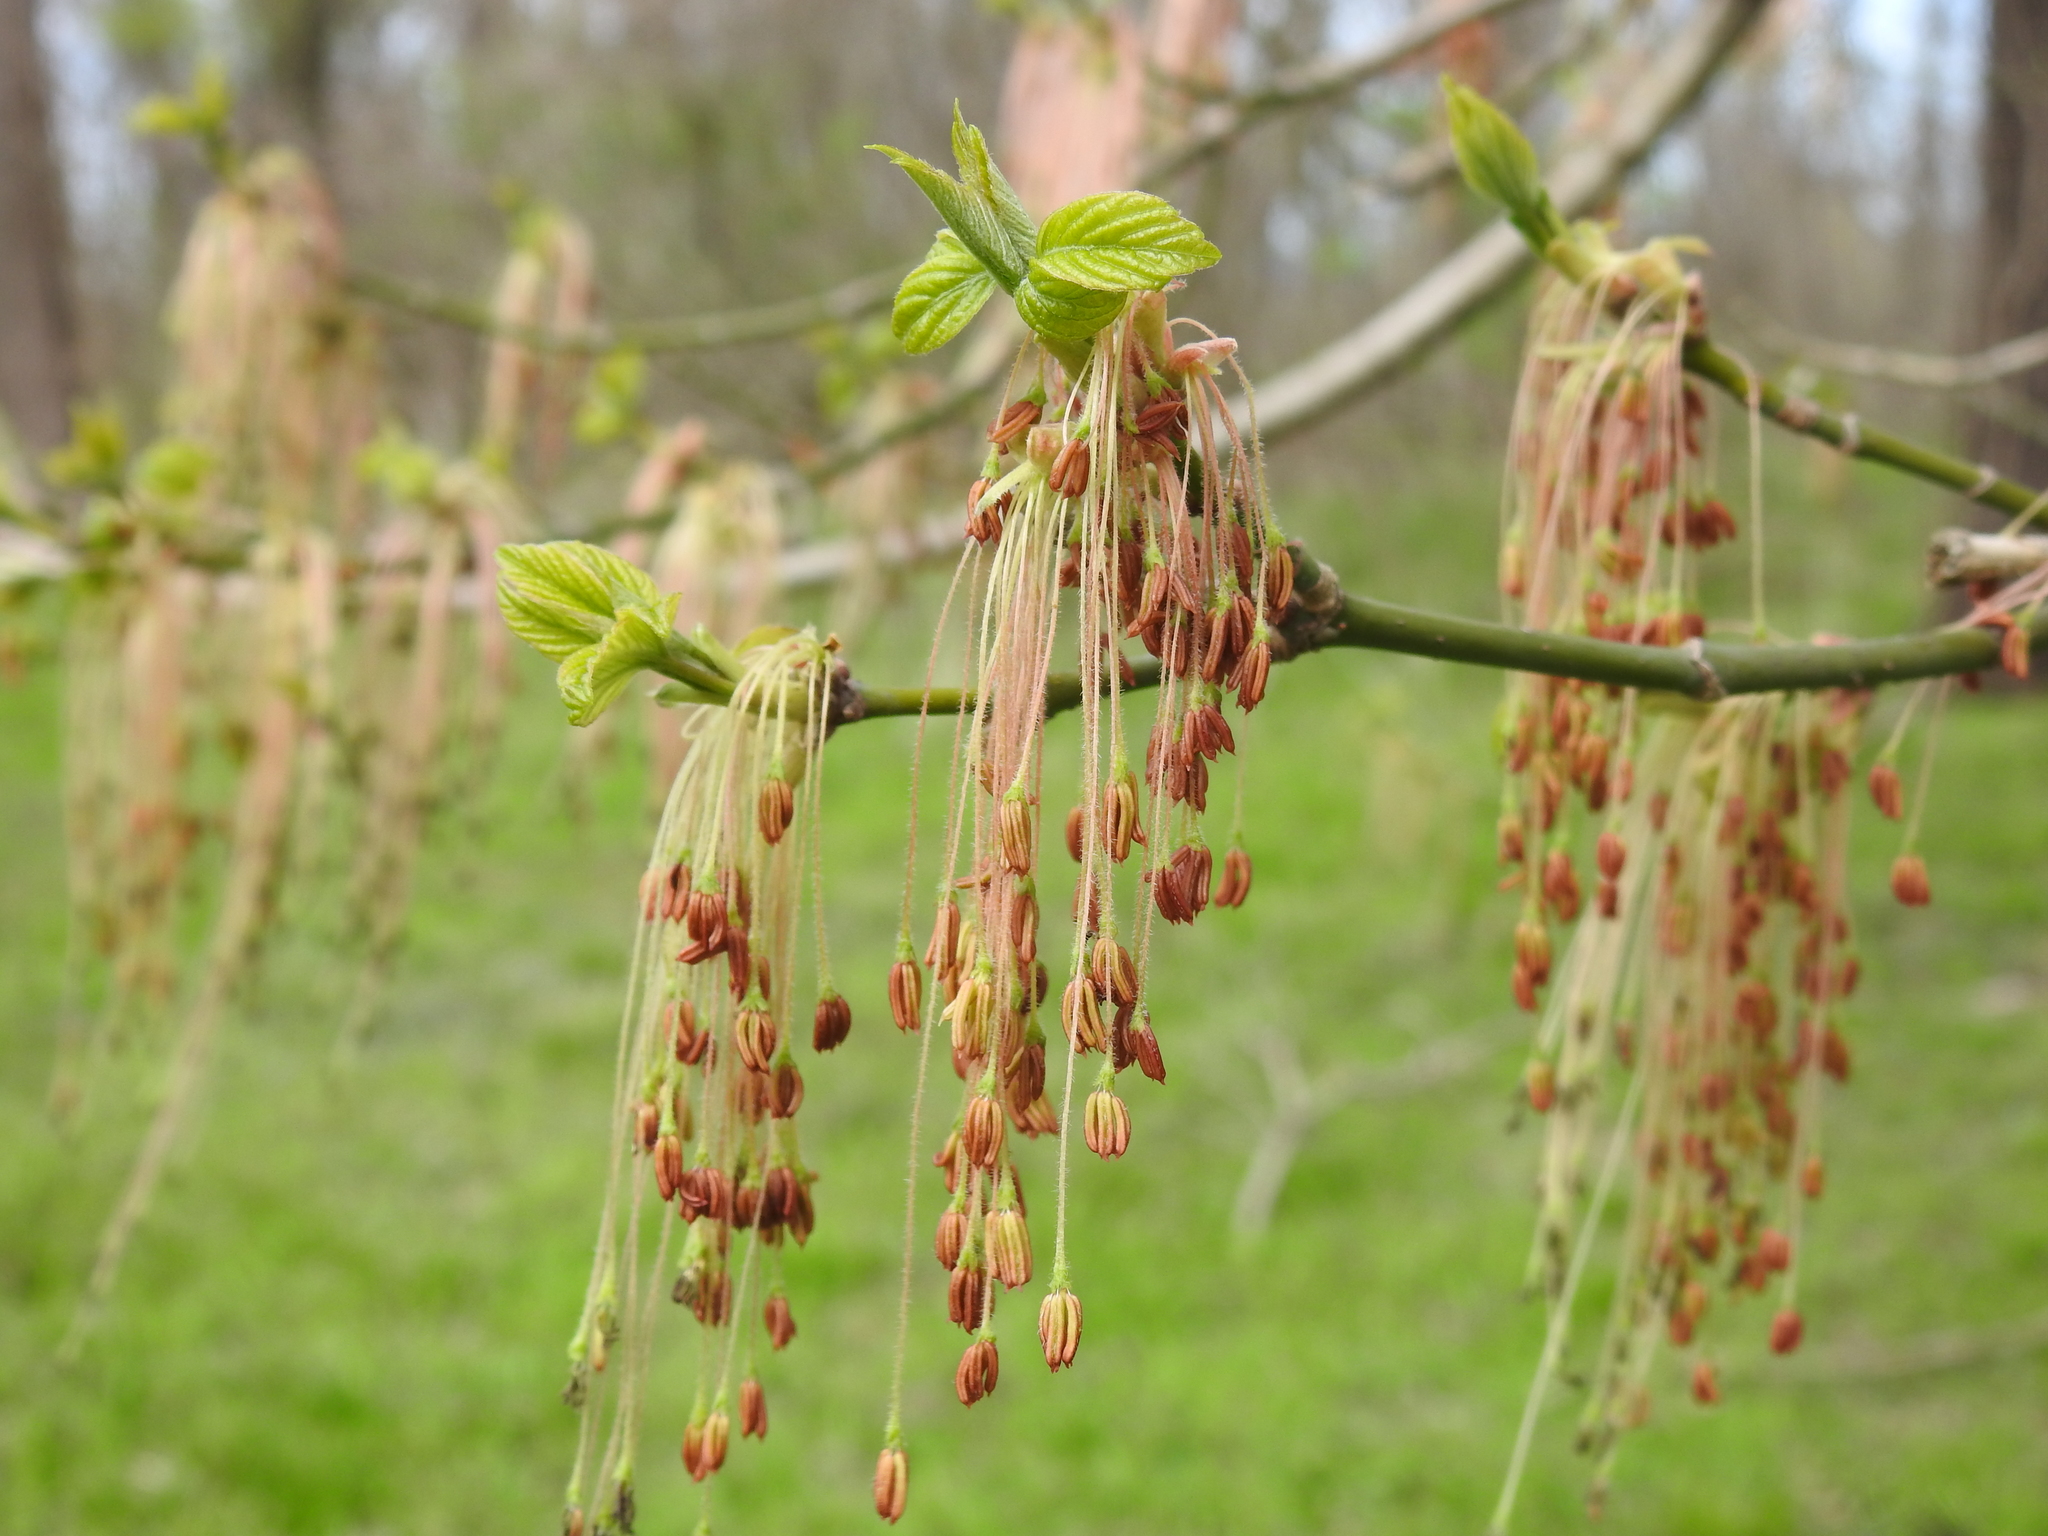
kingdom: Plantae
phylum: Tracheophyta
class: Magnoliopsida
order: Sapindales
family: Sapindaceae
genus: Acer
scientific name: Acer negundo
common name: Ashleaf maple
